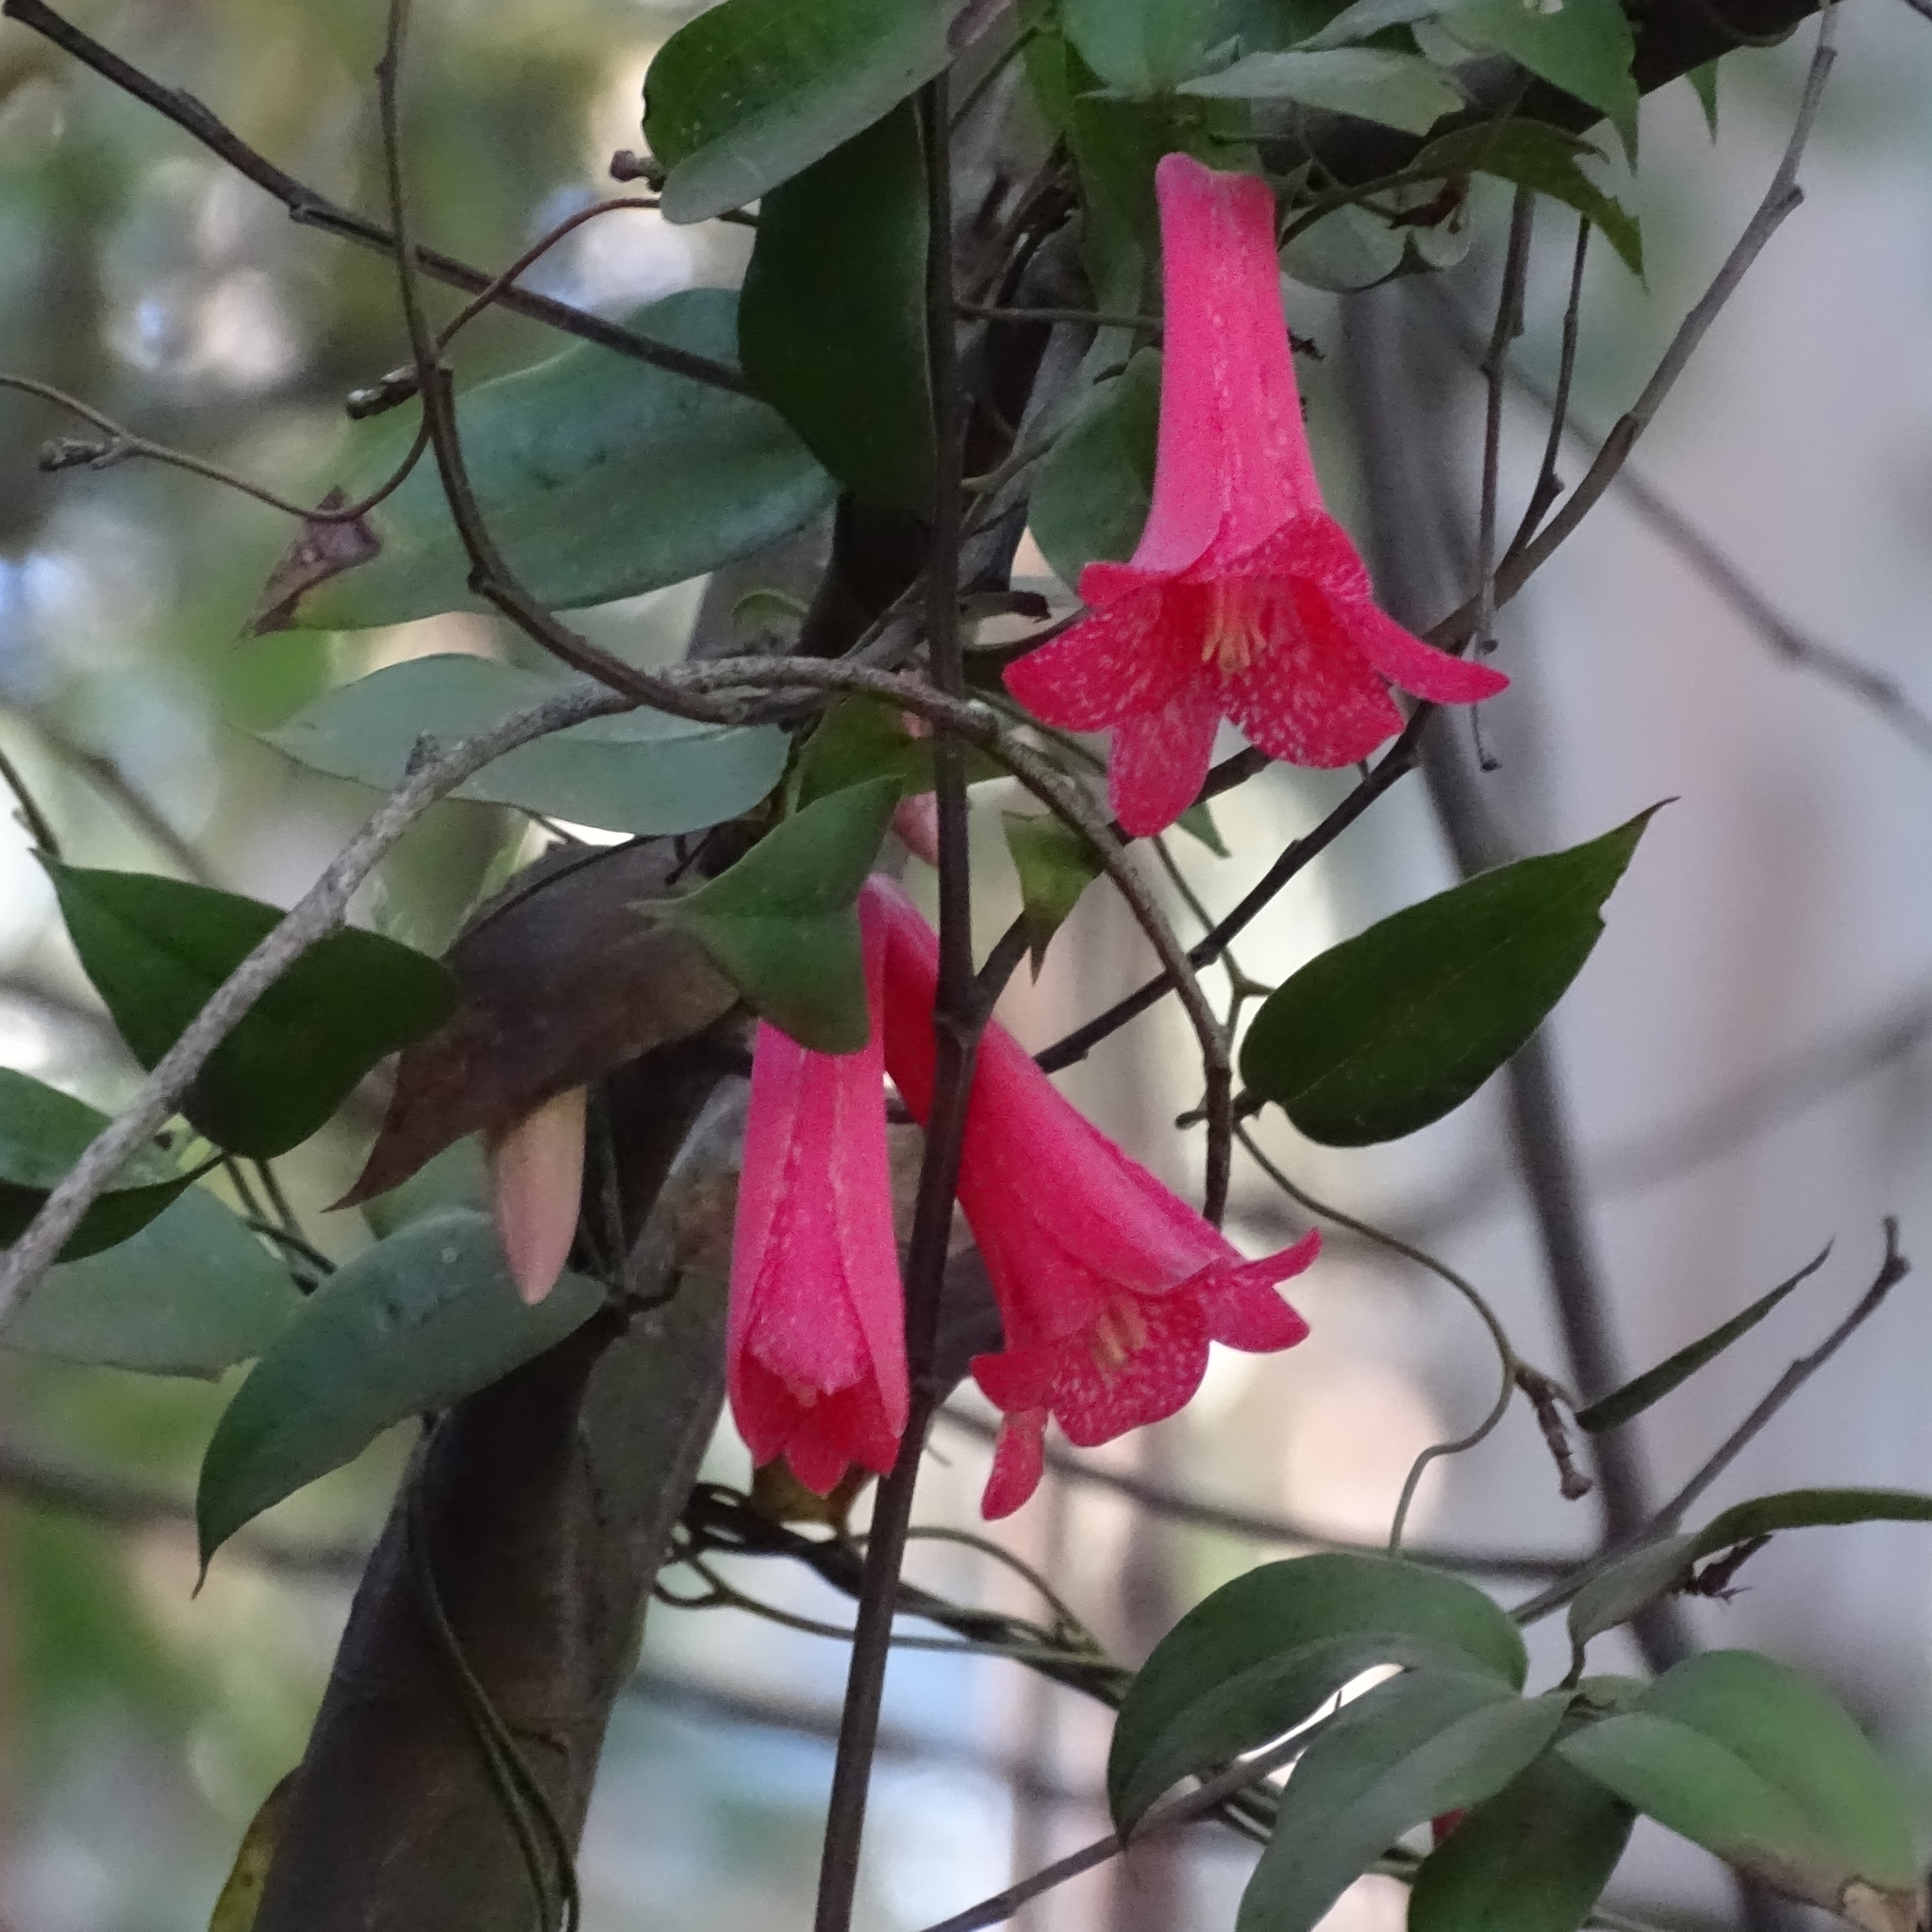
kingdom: Plantae
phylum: Tracheophyta
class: Liliopsida
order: Liliales
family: Philesiaceae
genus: Lapageria
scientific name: Lapageria rosea
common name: Chilean-bellflower
